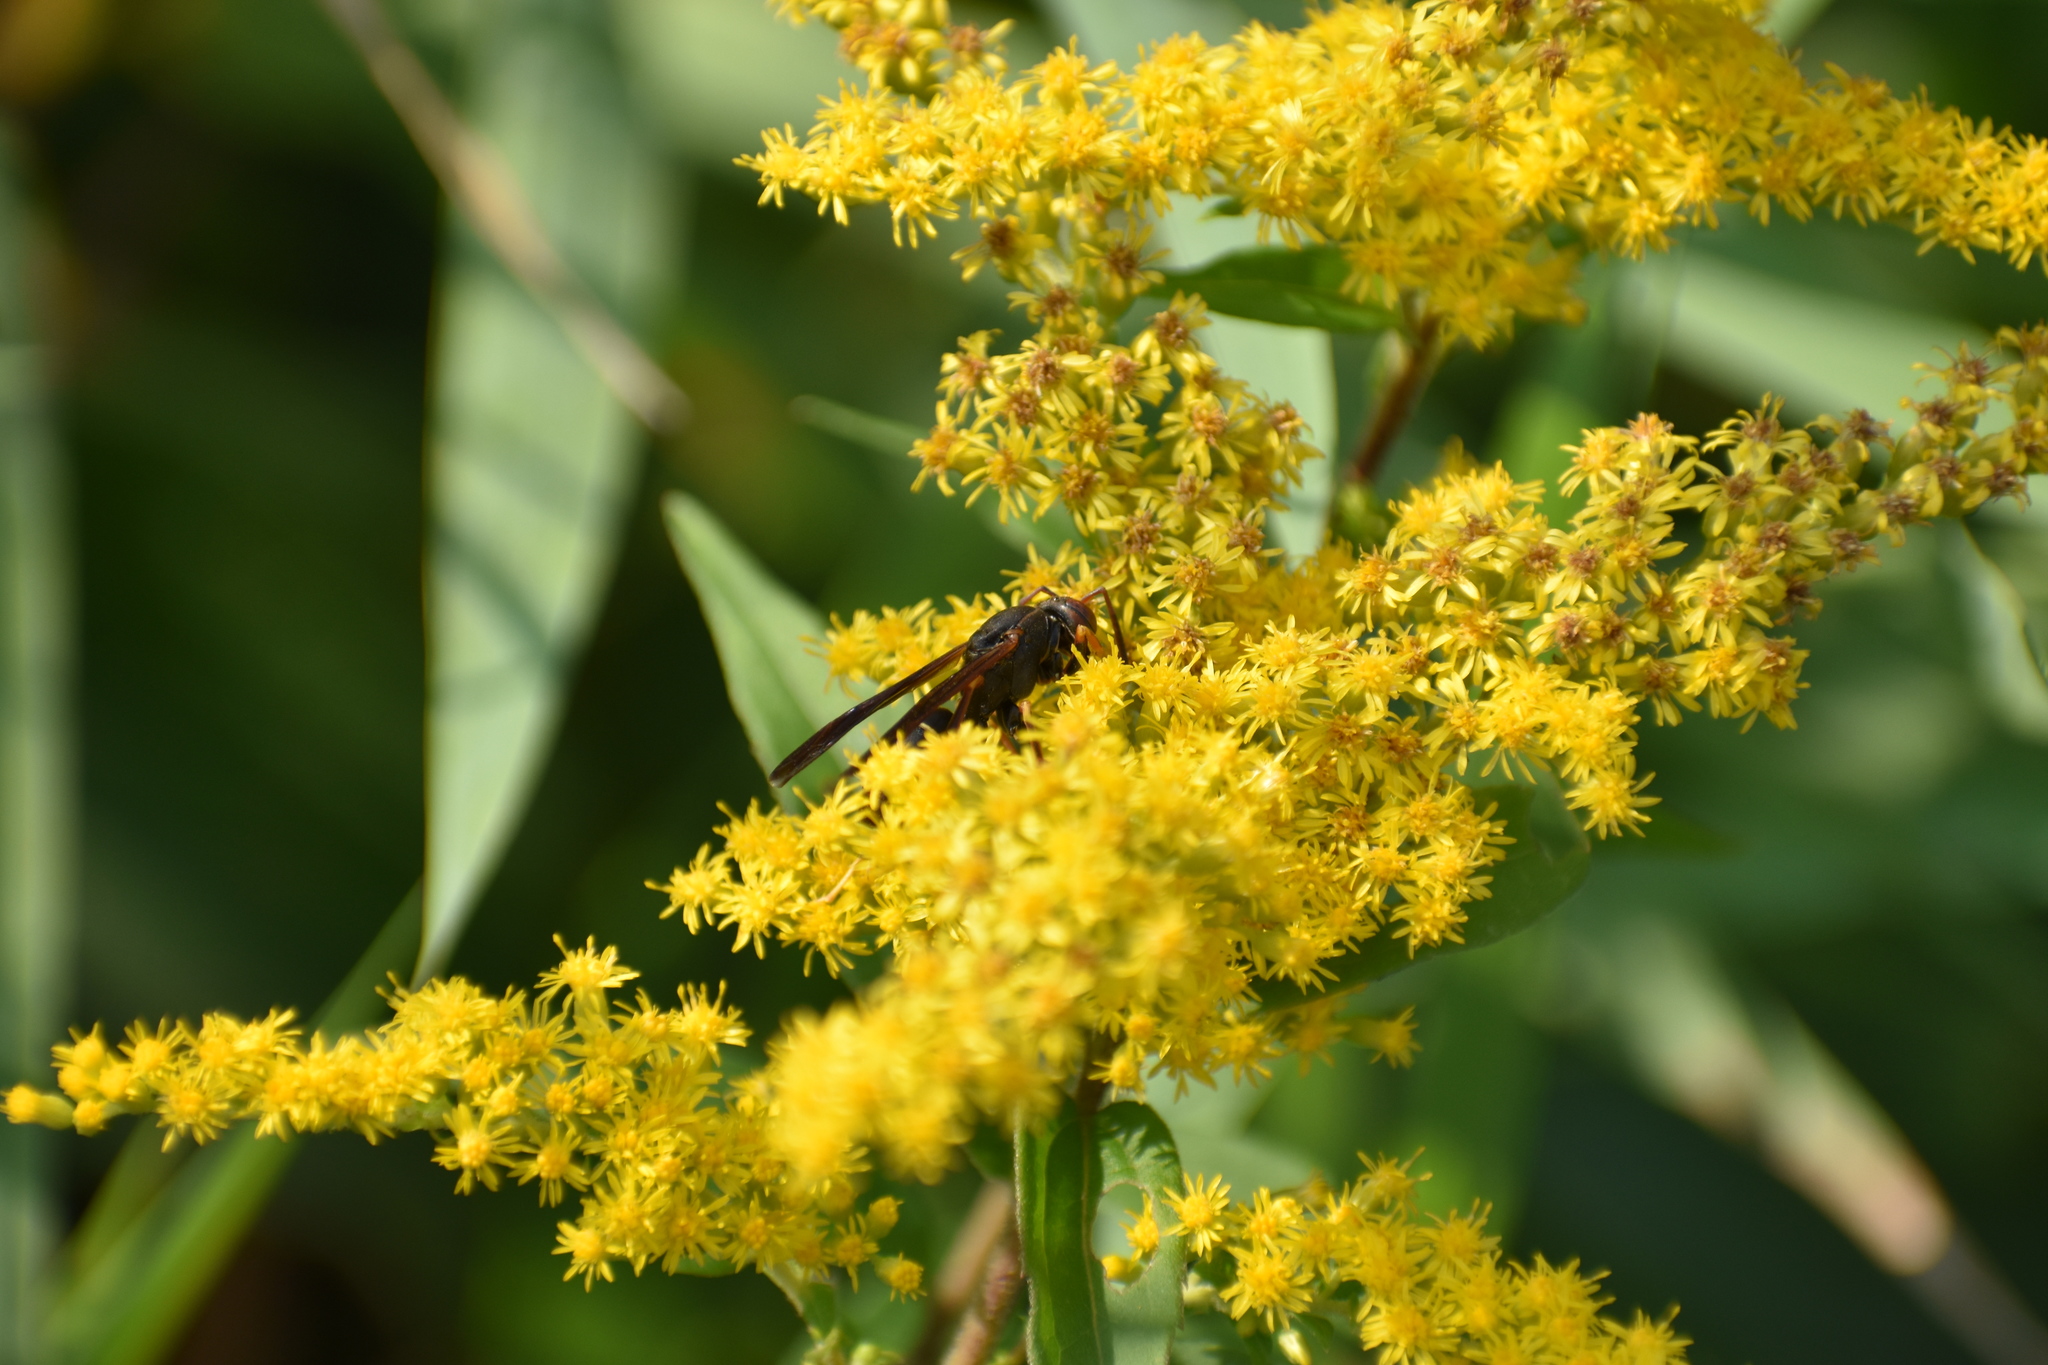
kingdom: Animalia
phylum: Arthropoda
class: Insecta
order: Hymenoptera
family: Eumenidae
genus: Polistes
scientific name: Polistes fuscatus
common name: Dark paper wasp
